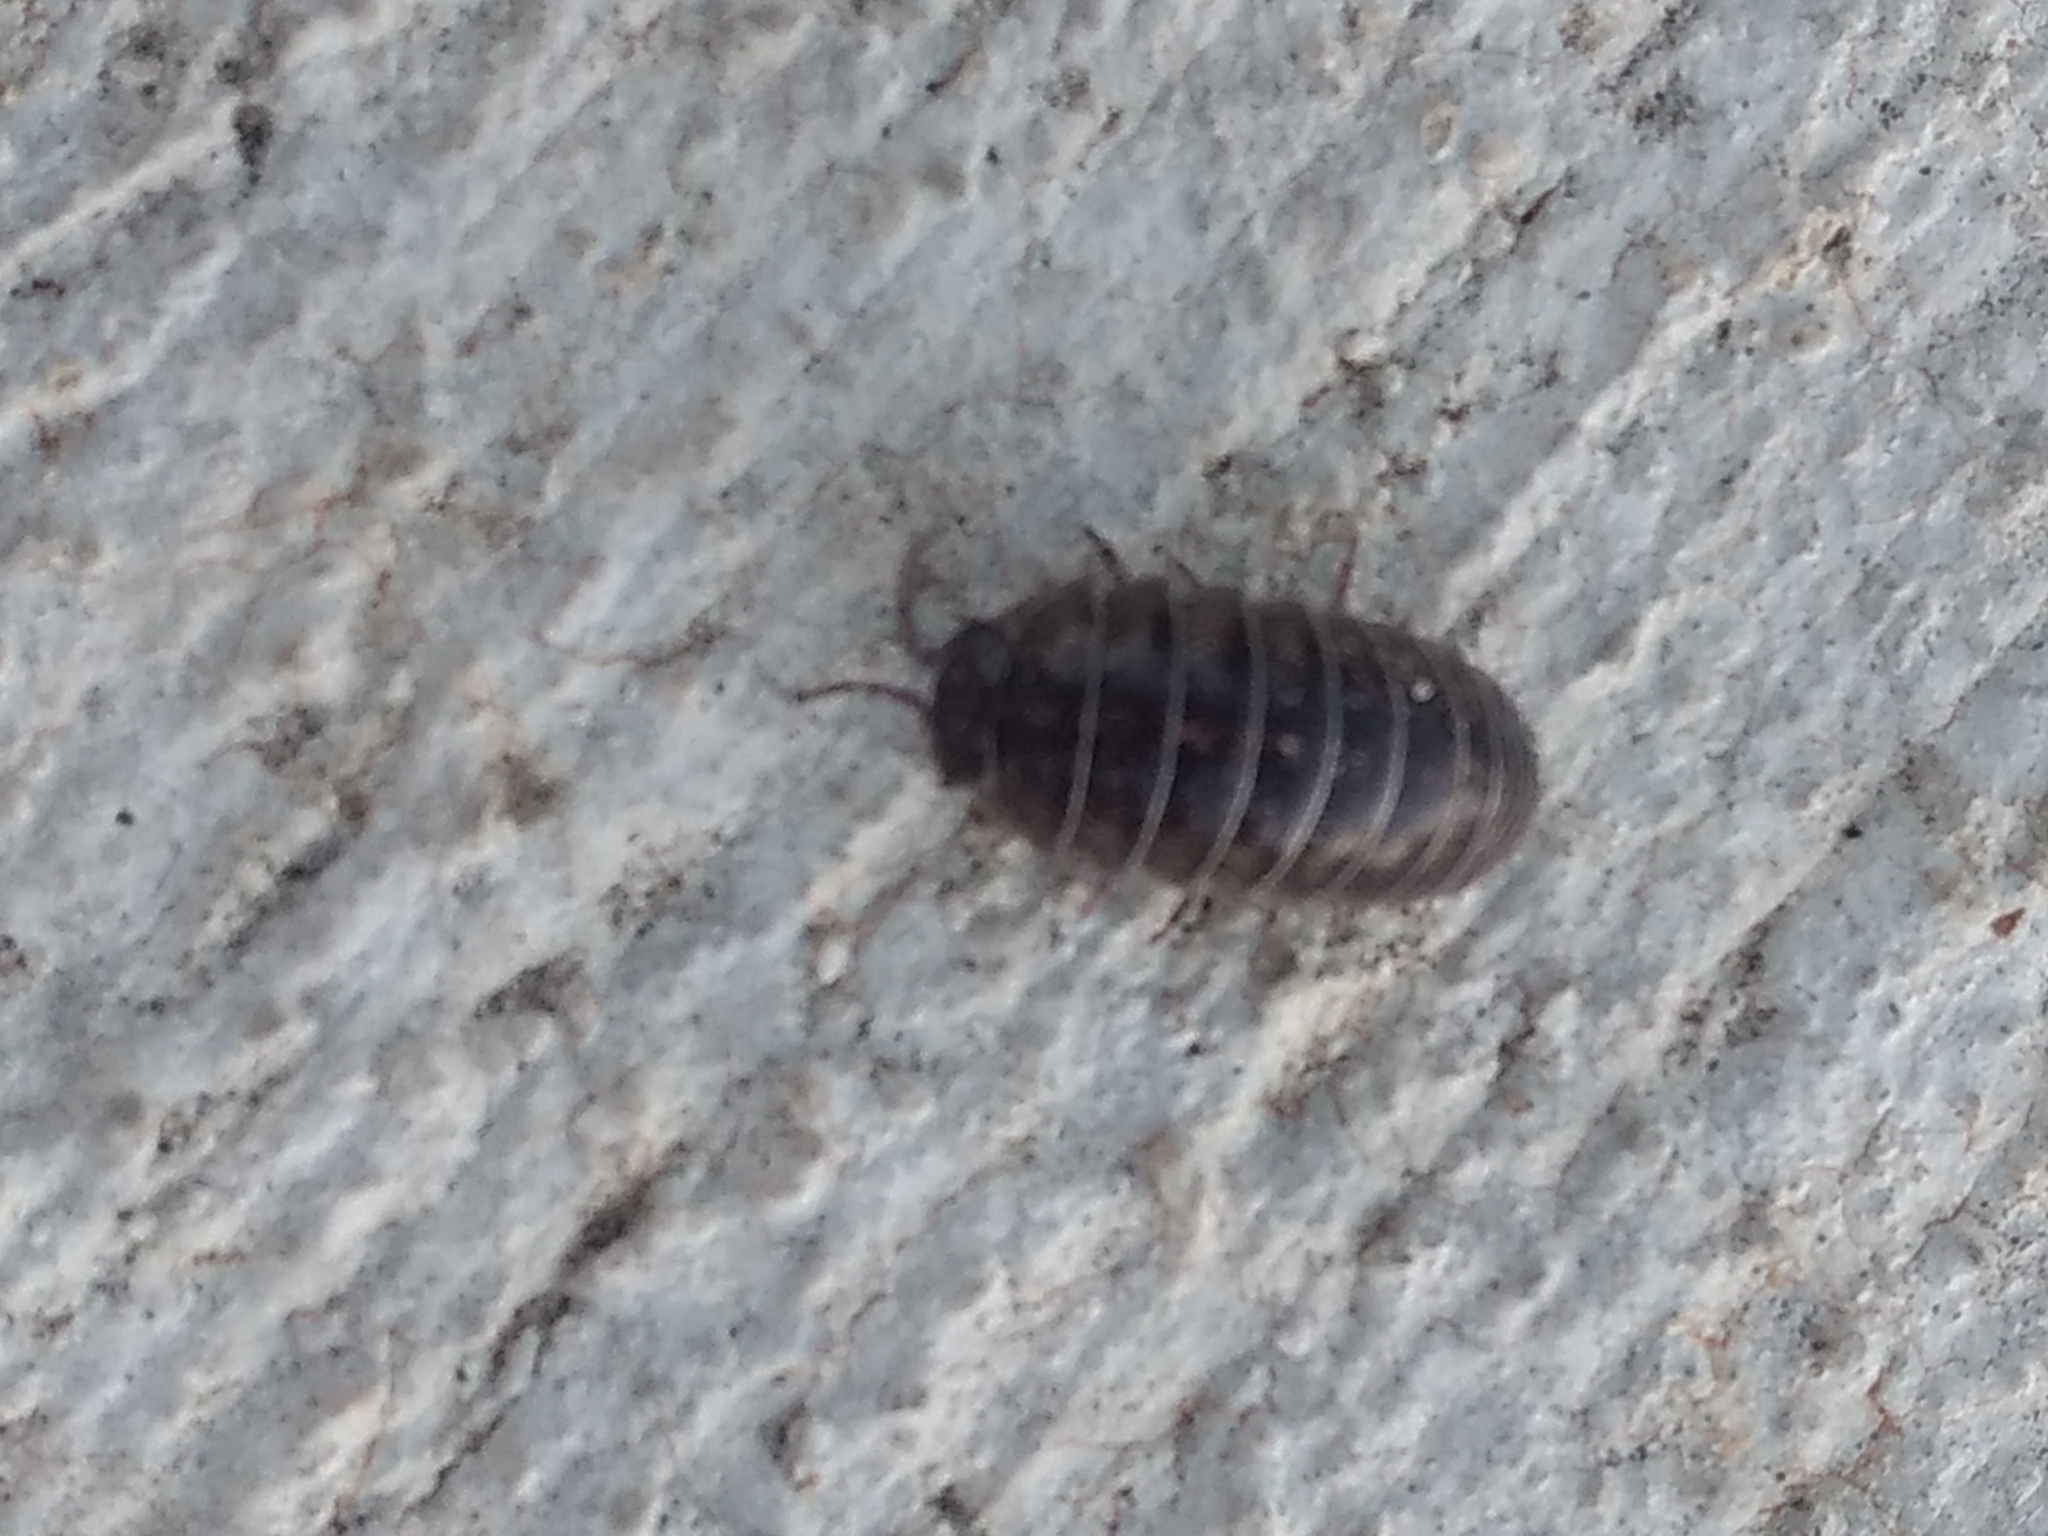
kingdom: Animalia
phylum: Arthropoda
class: Malacostraca
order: Isopoda
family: Armadillidiidae
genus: Armadillidium
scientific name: Armadillidium vulgare
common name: Common pill woodlouse
